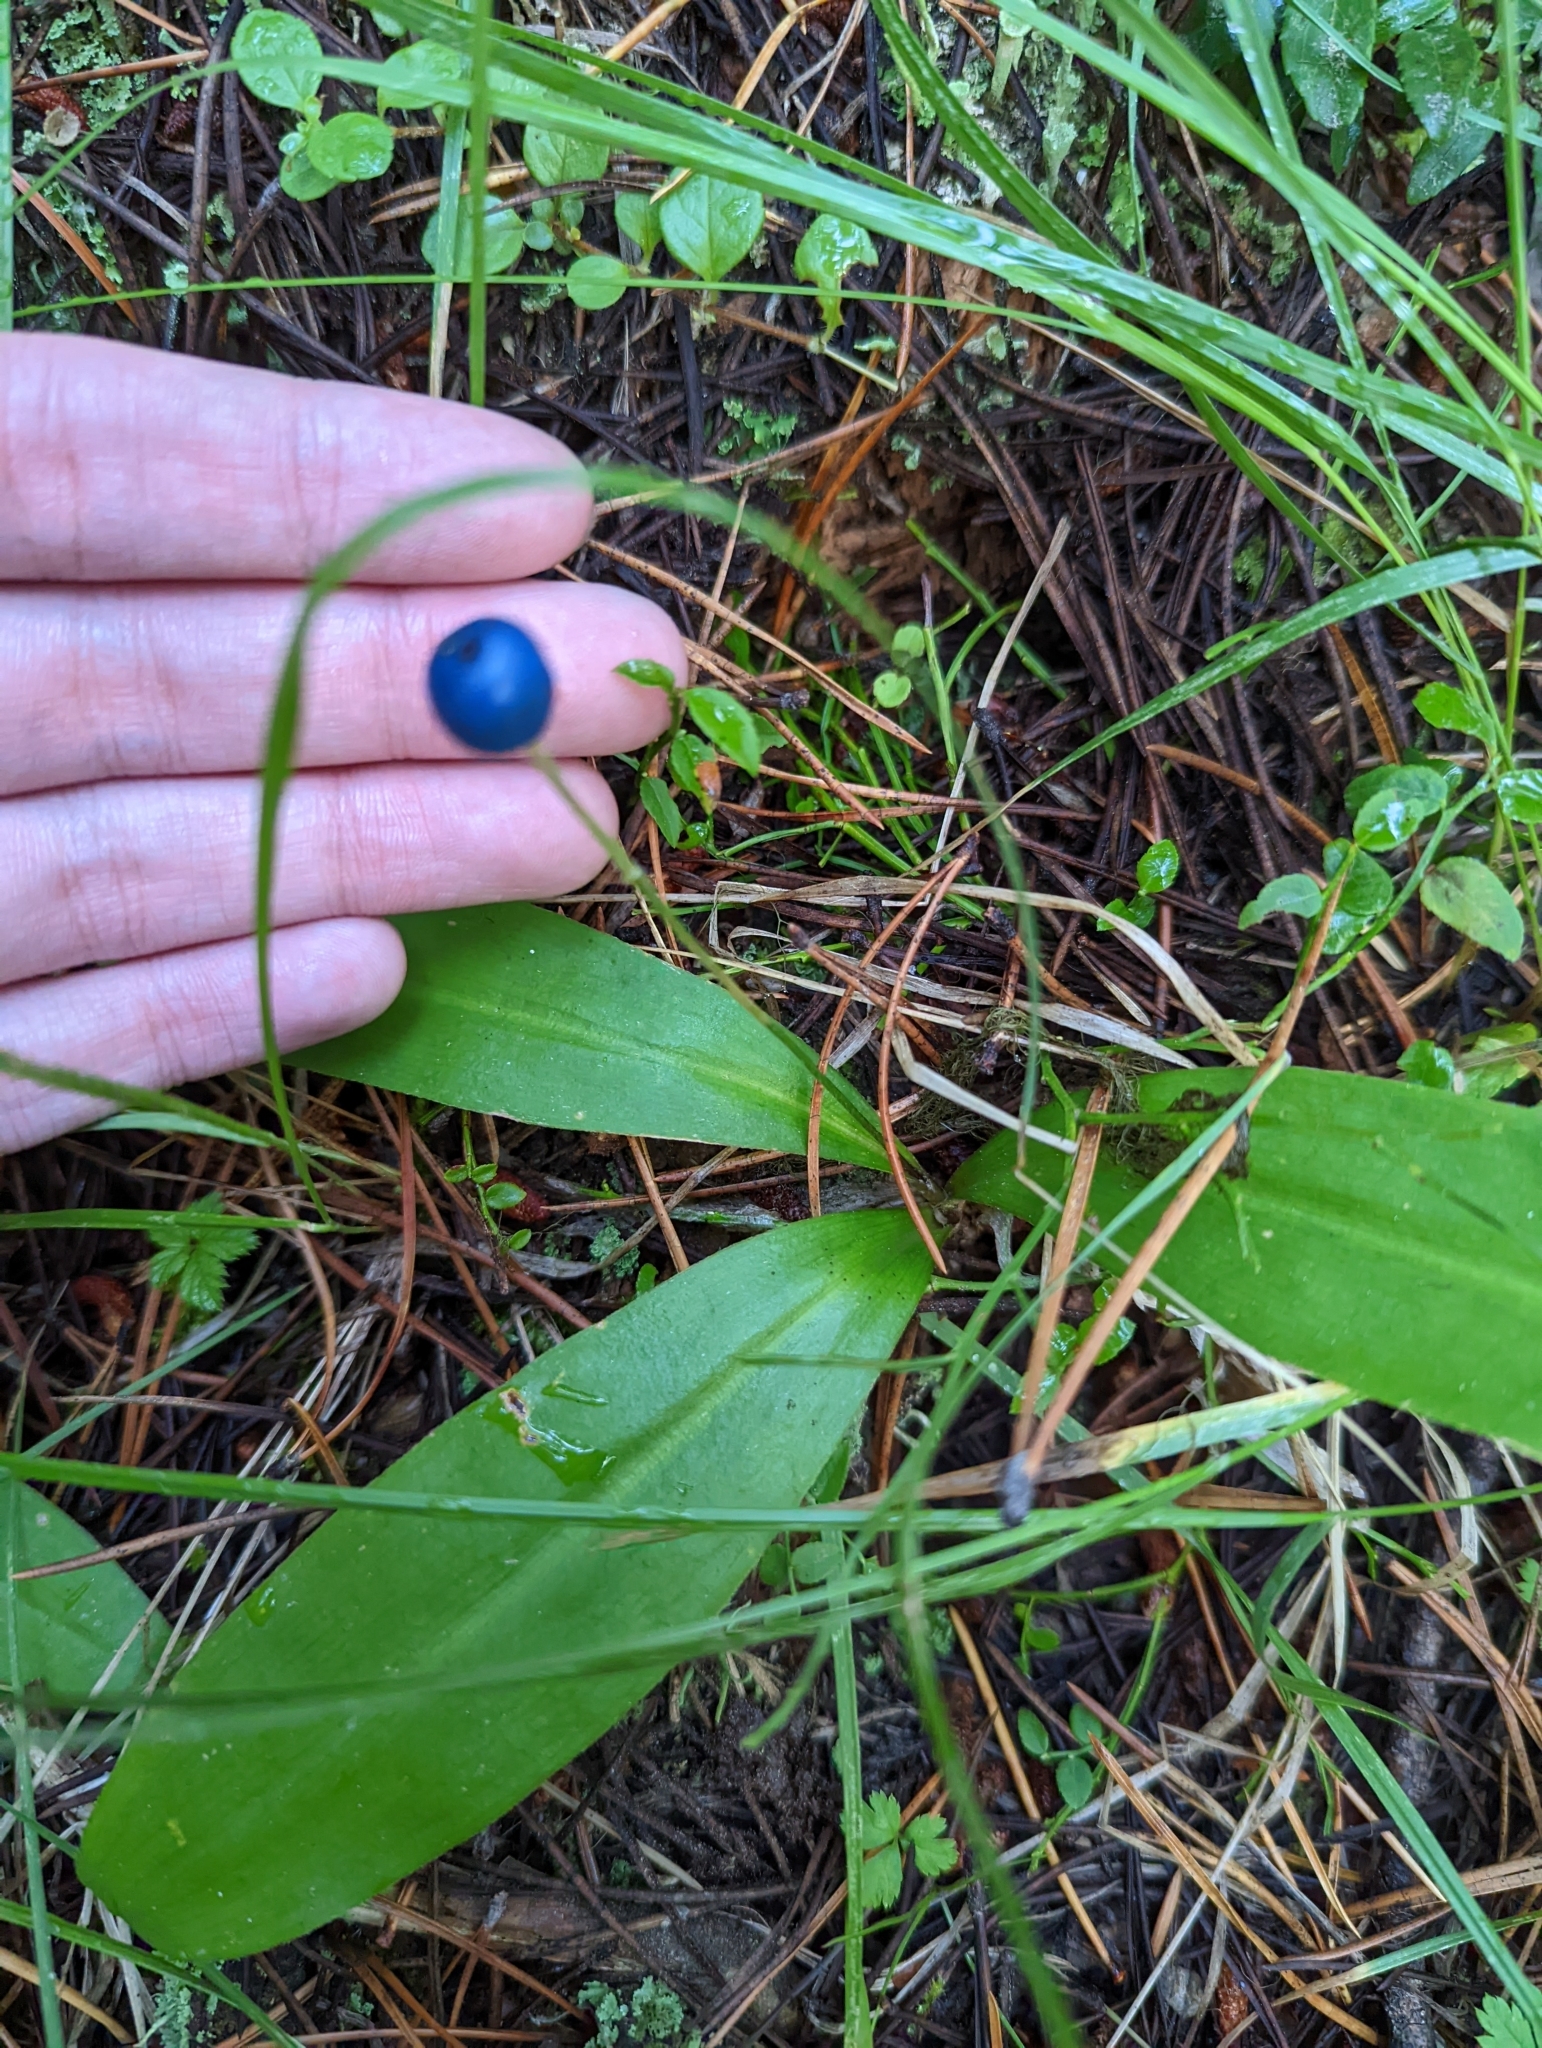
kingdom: Plantae
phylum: Tracheophyta
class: Liliopsida
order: Liliales
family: Liliaceae
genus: Clintonia
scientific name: Clintonia uniflora
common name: Queen's cup
